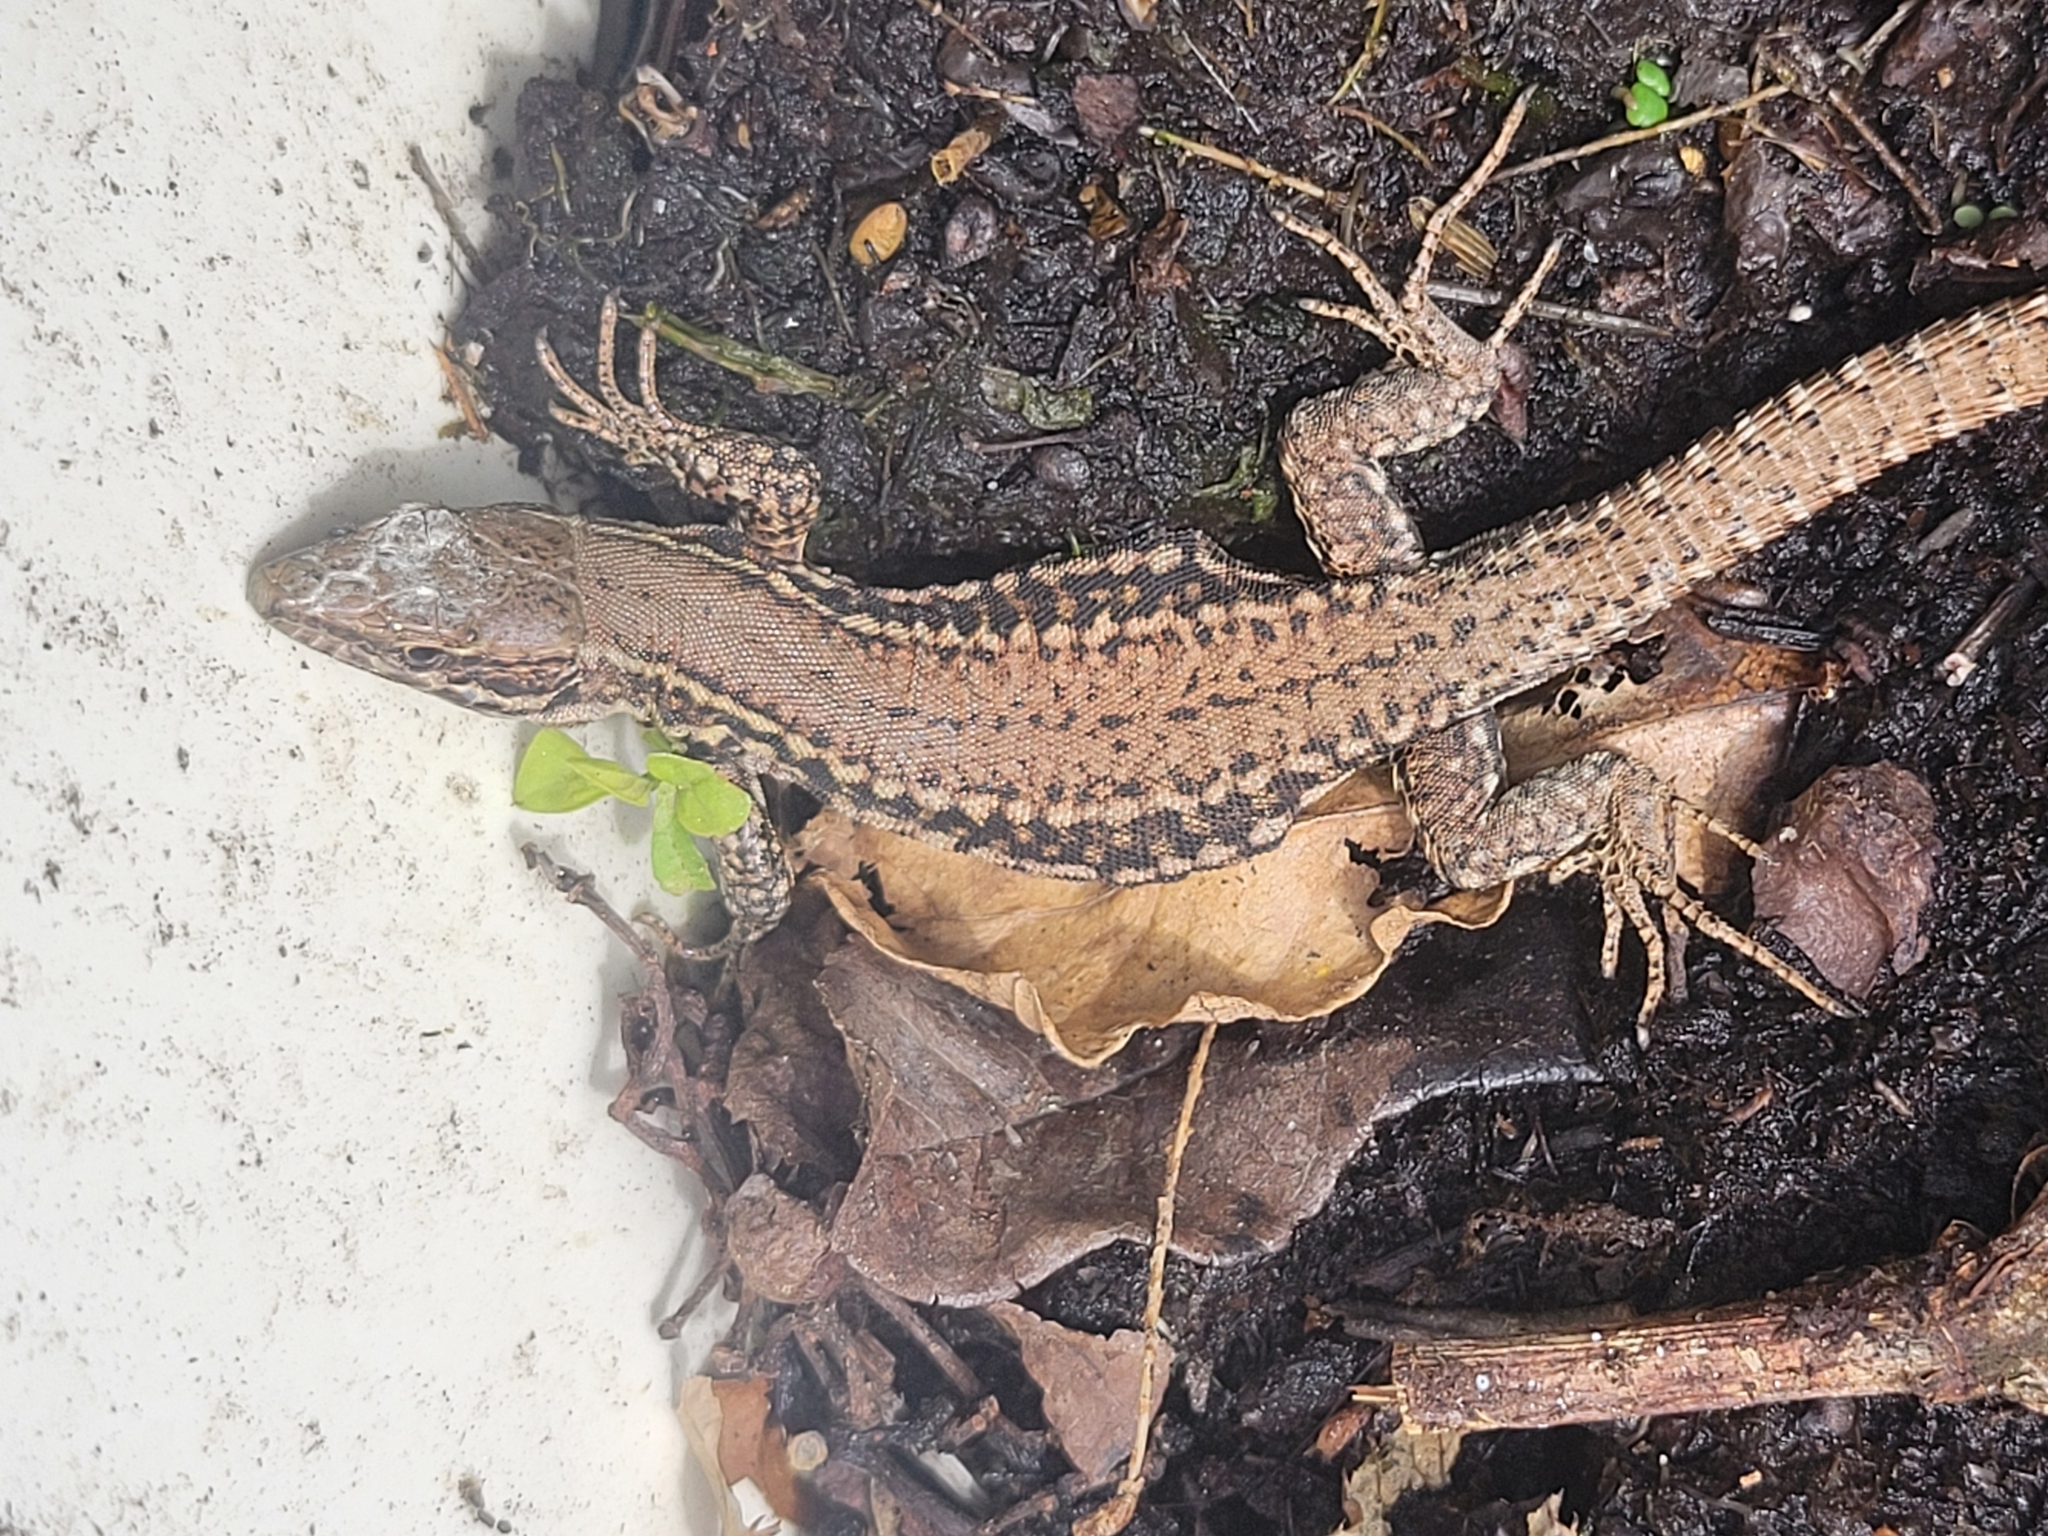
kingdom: Animalia
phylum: Chordata
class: Squamata
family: Lacertidae
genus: Podarcis
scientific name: Podarcis muralis
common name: Common wall lizard
